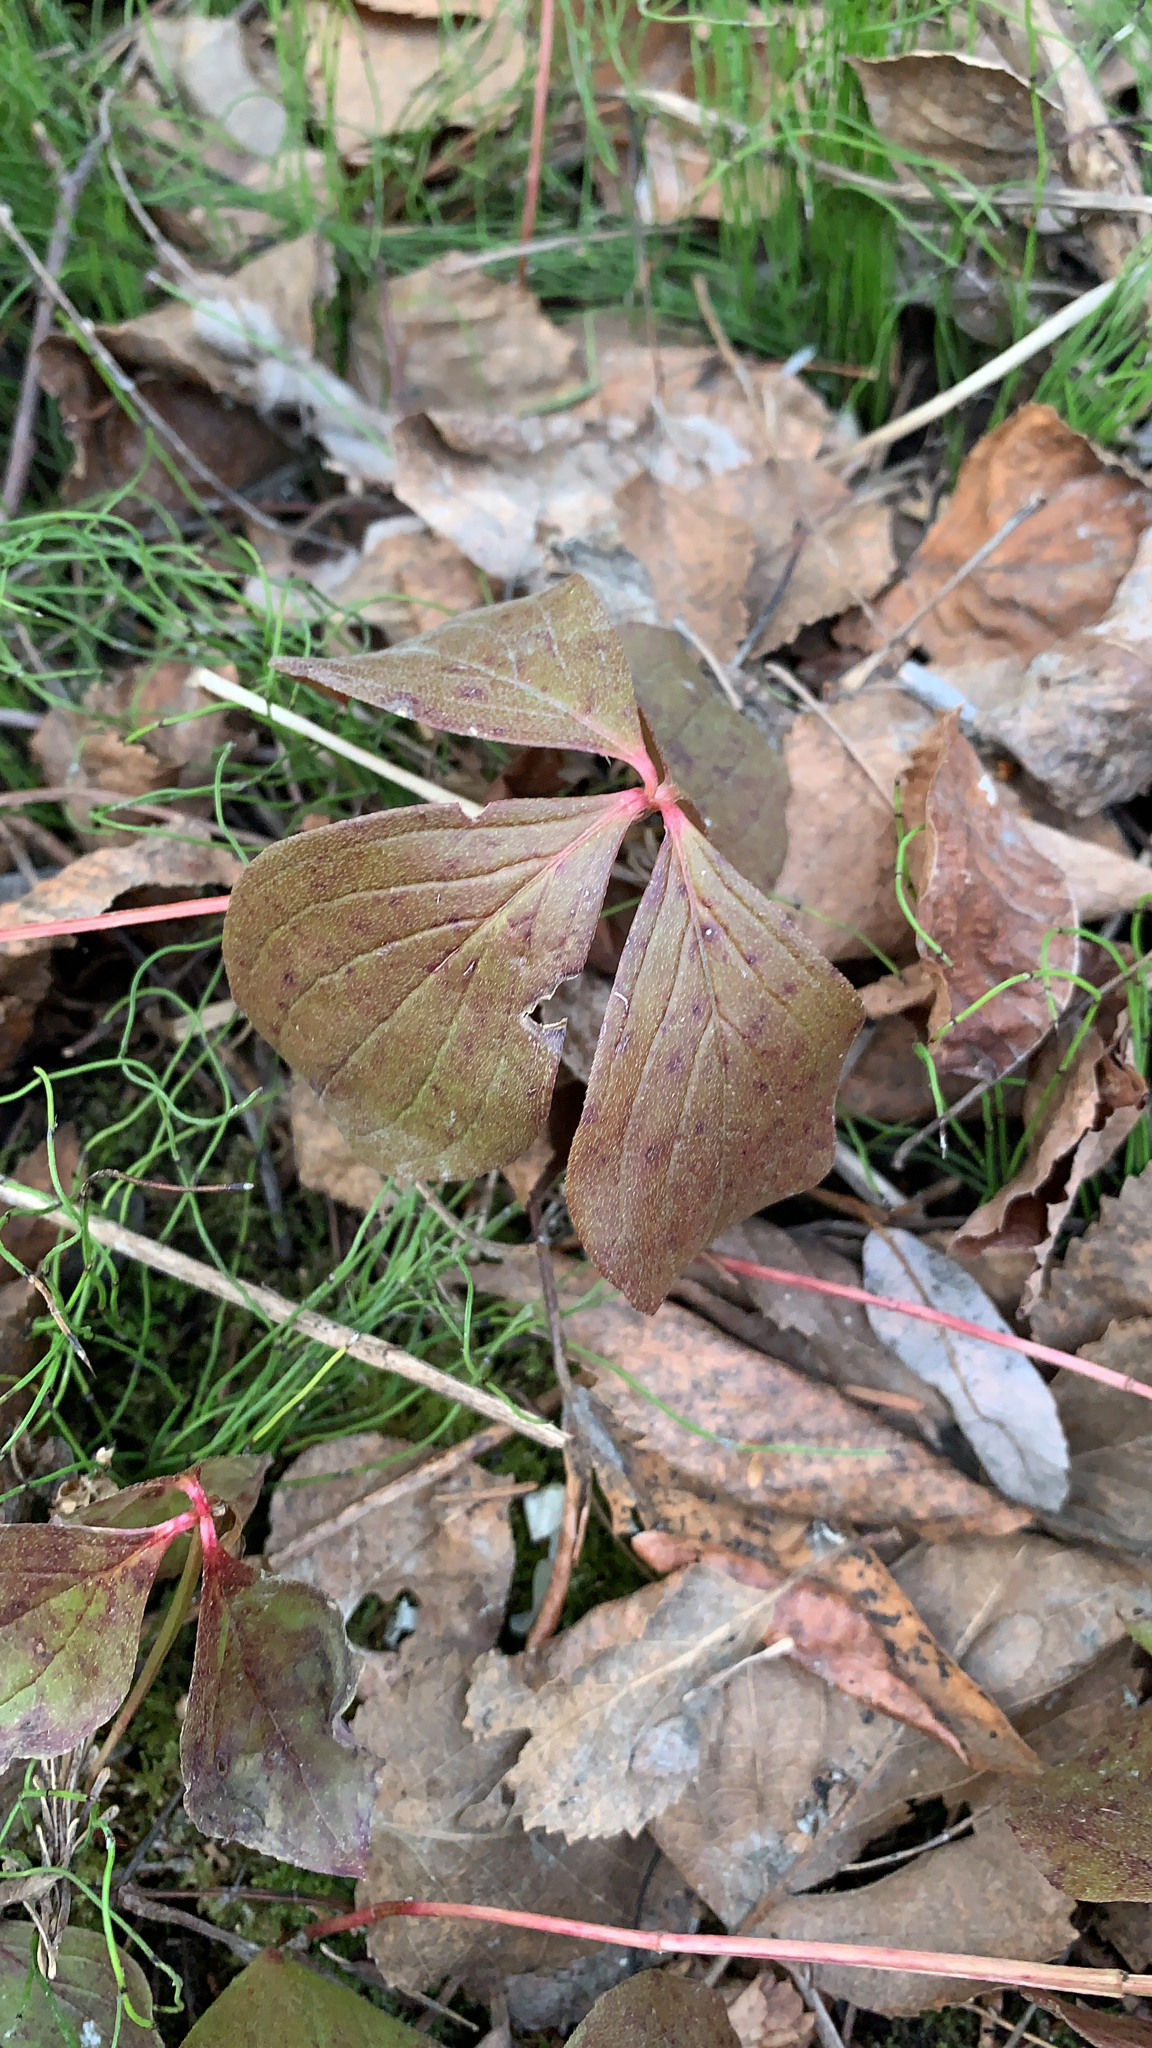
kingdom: Plantae
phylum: Tracheophyta
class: Magnoliopsida
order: Cornales
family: Cornaceae
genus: Cornus
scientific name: Cornus canadensis
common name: Creeping dogwood
